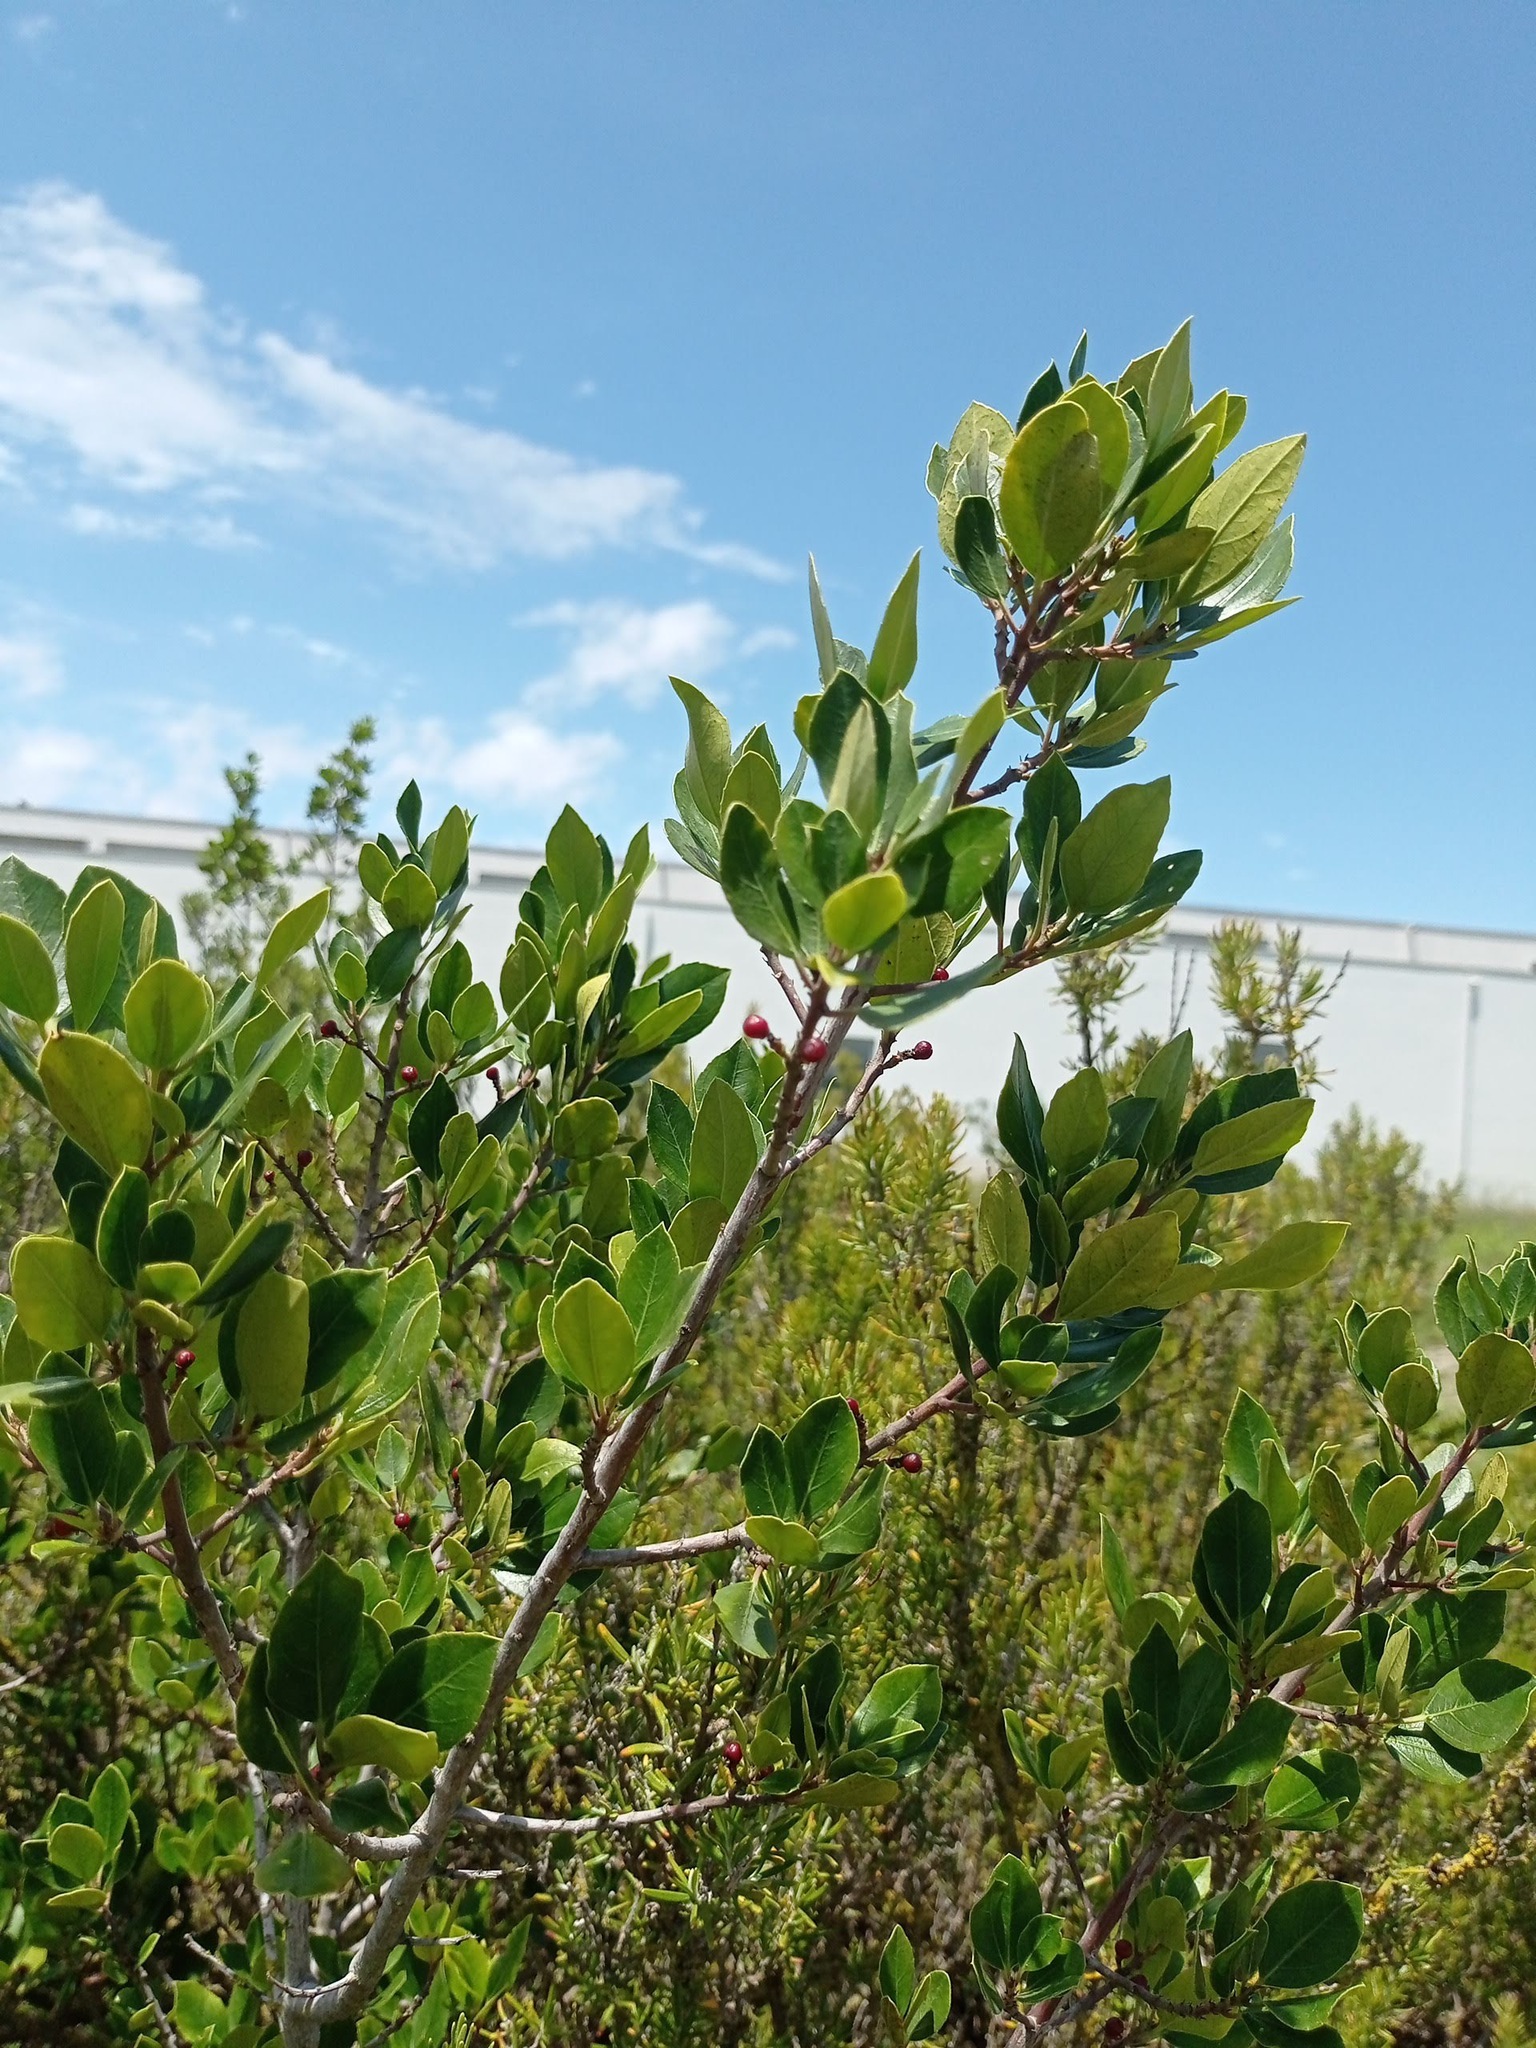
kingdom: Plantae
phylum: Tracheophyta
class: Magnoliopsida
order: Rosales
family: Rhamnaceae
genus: Rhamnus
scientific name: Rhamnus alaternus
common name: Mediterranean buckthorn
